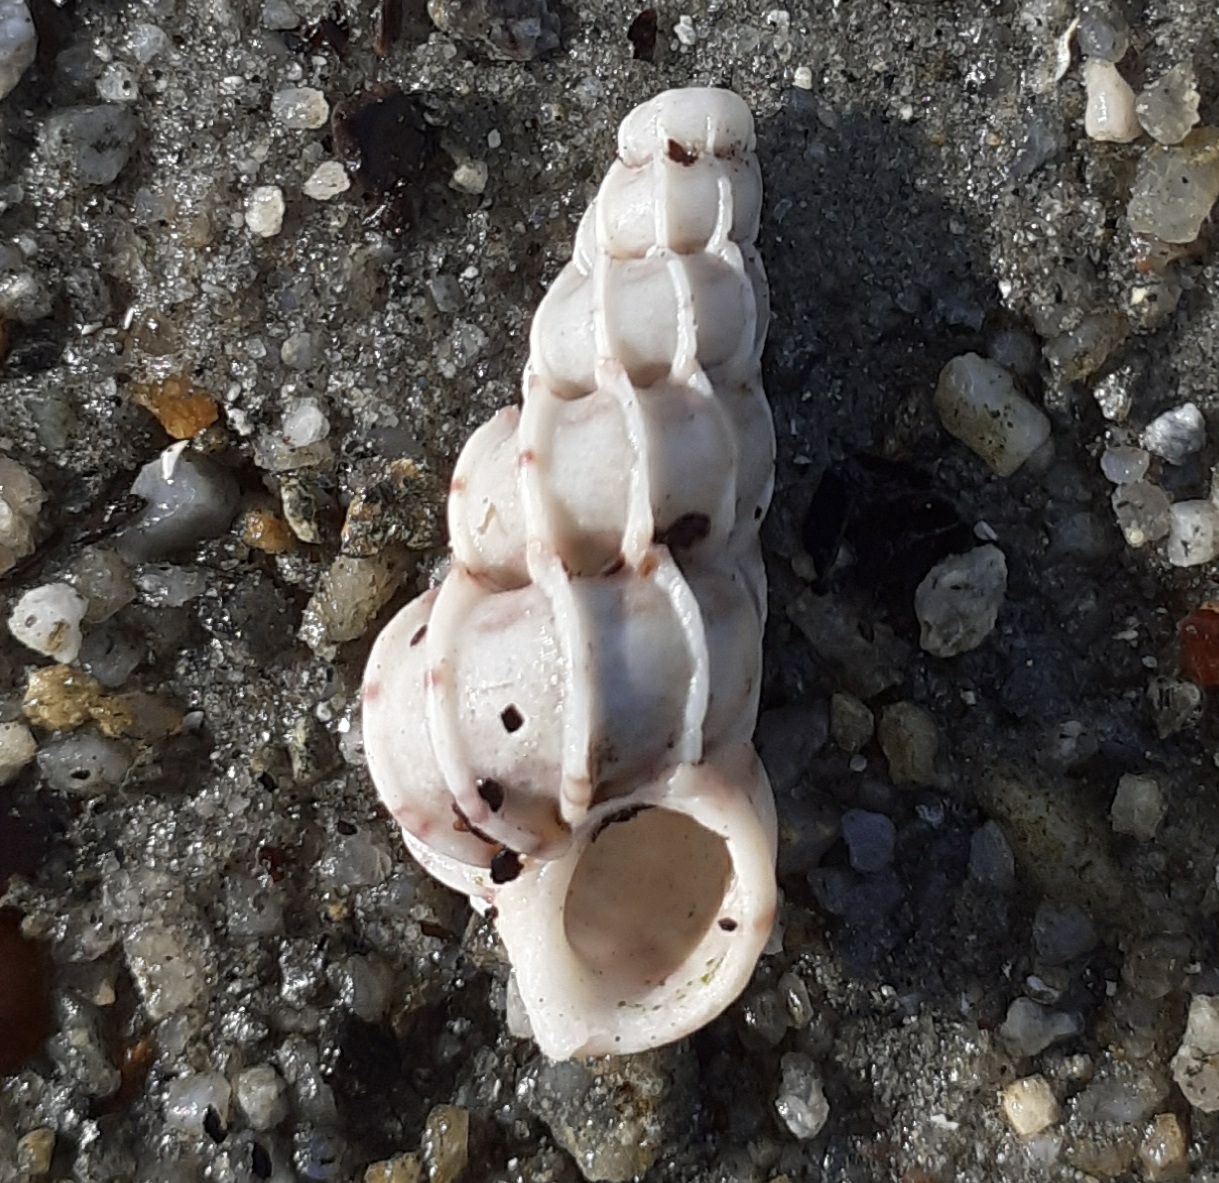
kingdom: Animalia
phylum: Mollusca
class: Gastropoda
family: Epitoniidae
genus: Epitonium
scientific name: Epitonium clathrus
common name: Common wentletrap
